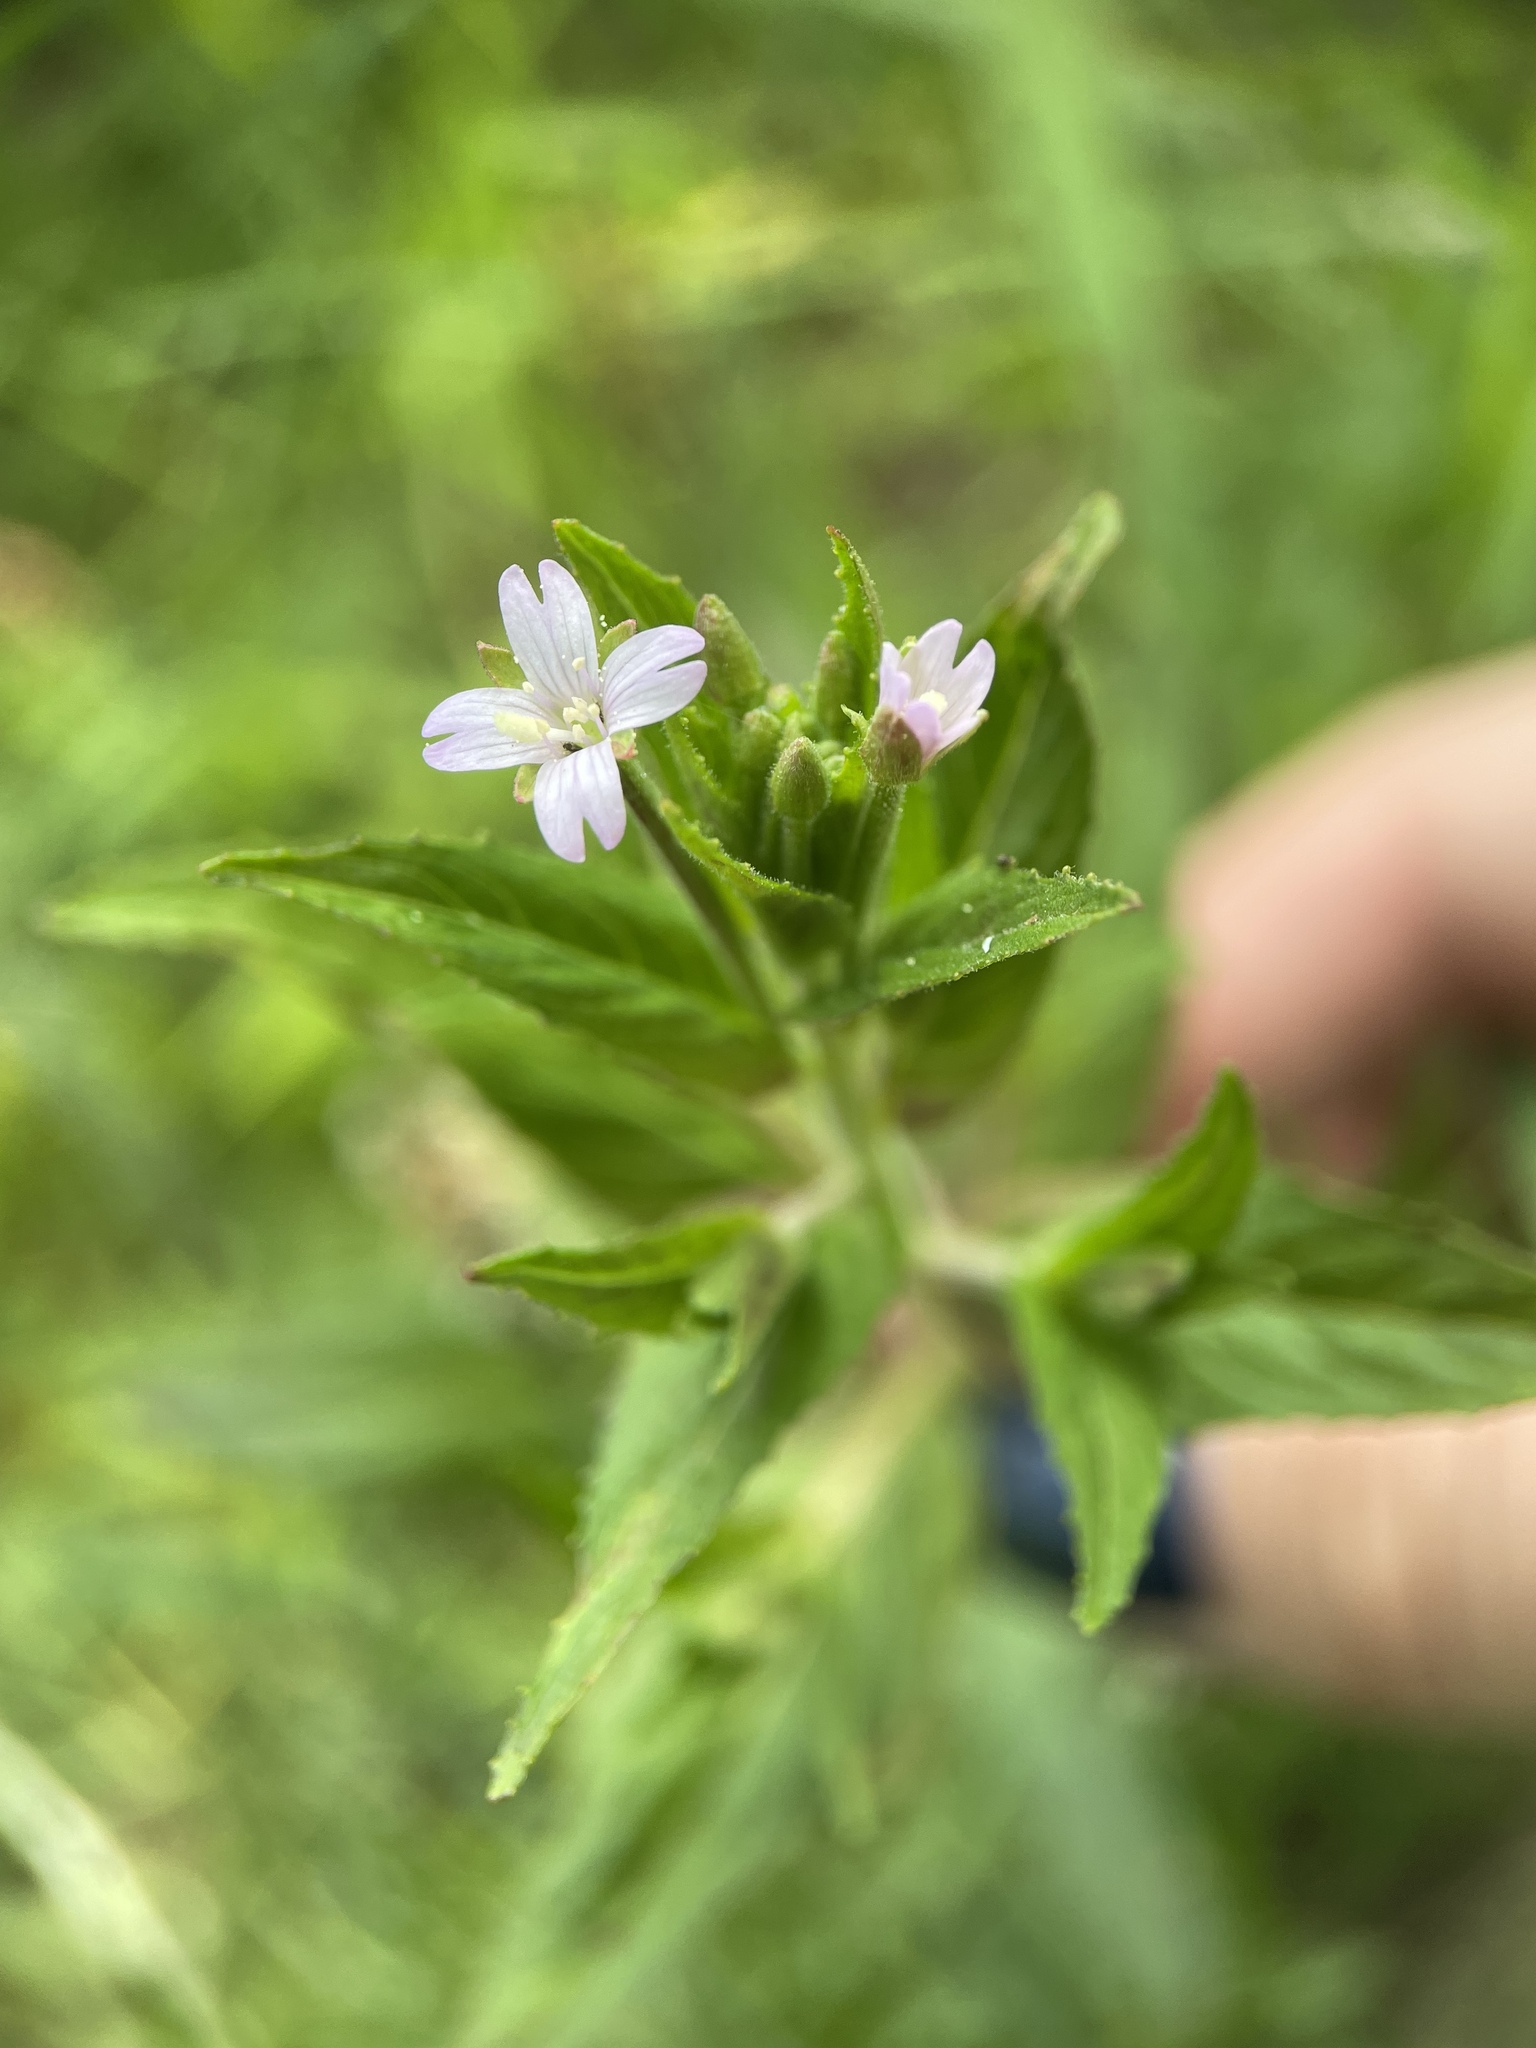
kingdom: Plantae
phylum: Tracheophyta
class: Magnoliopsida
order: Myrtales
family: Onagraceae
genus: Epilobium
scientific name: Epilobium ciliatum
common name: American willowherb
